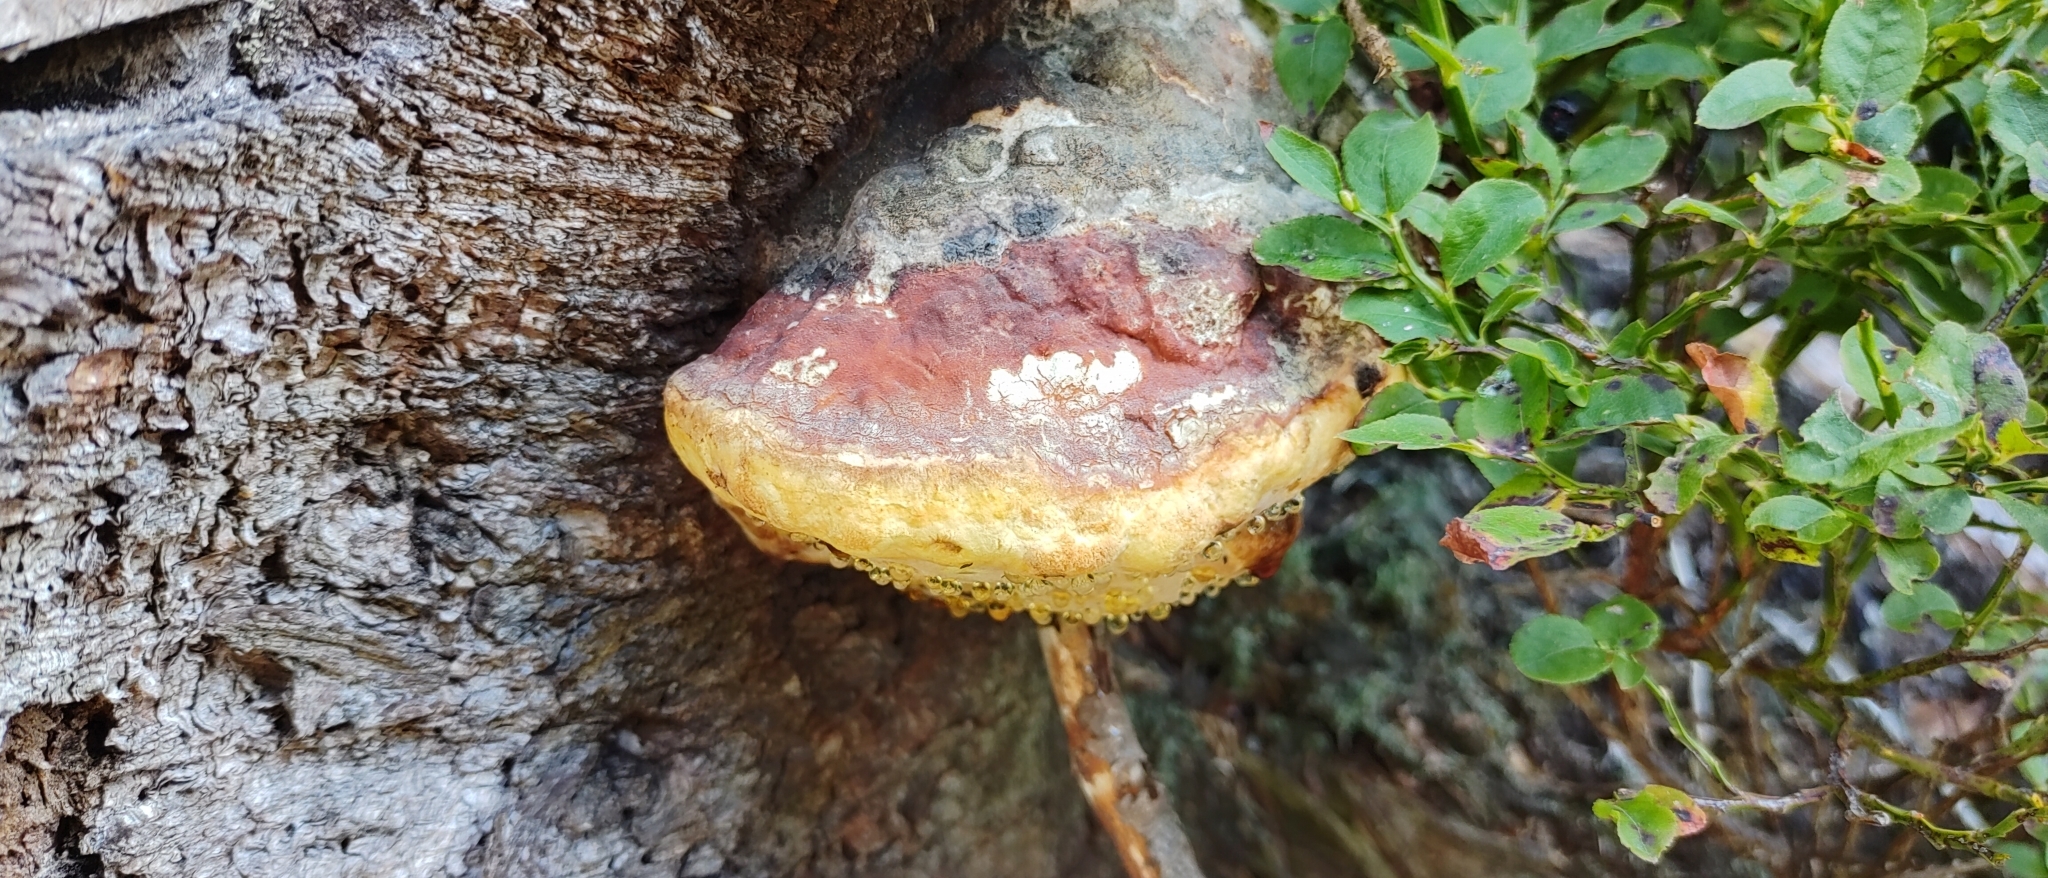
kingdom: Fungi
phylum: Basidiomycota
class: Agaricomycetes
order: Polyporales
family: Fomitopsidaceae
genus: Fomitopsis
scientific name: Fomitopsis pinicola
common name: Red-belted bracket
